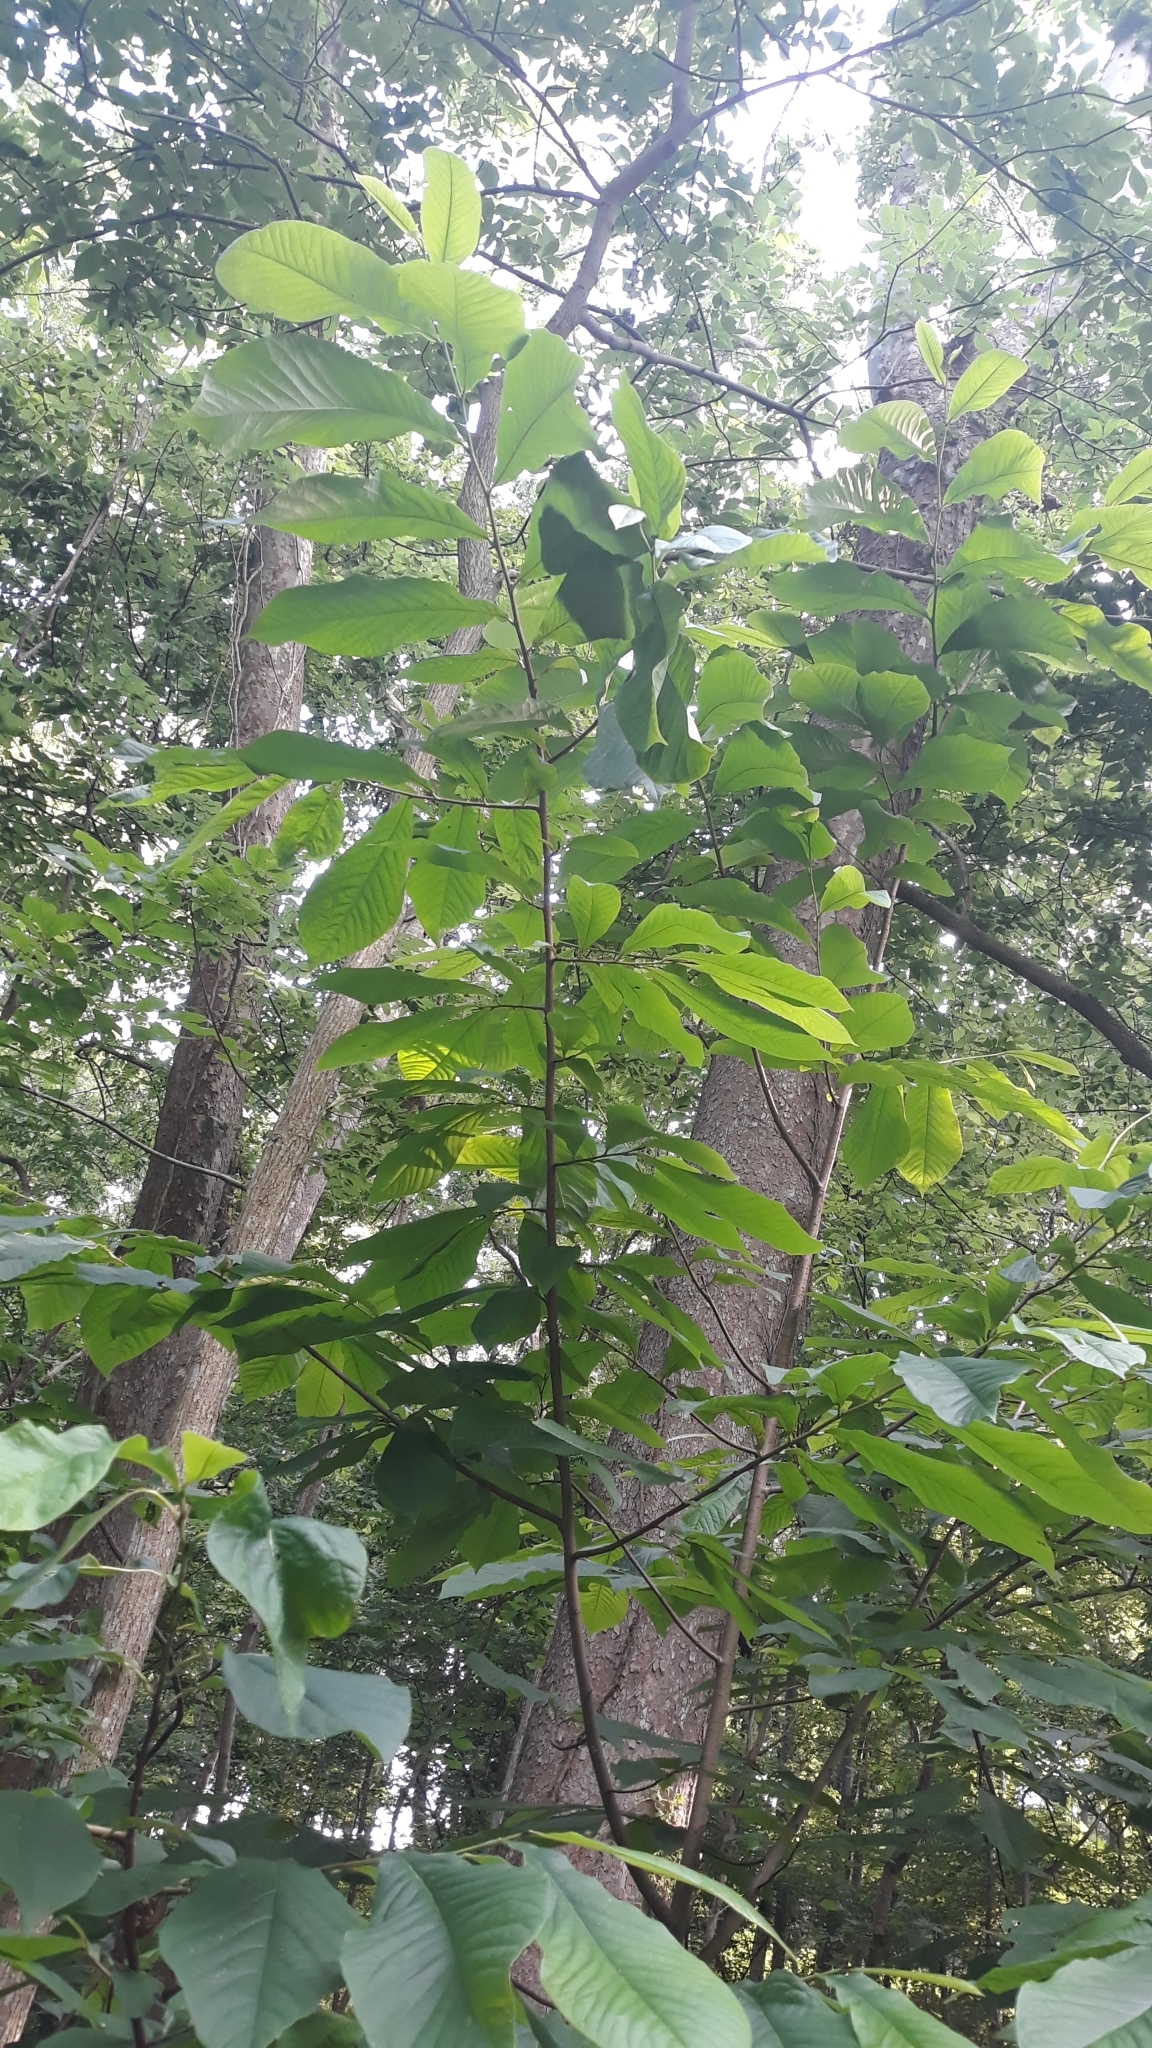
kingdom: Plantae
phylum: Tracheophyta
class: Magnoliopsida
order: Magnoliales
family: Annonaceae
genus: Asimina
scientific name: Asimina triloba
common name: Dog-banana
